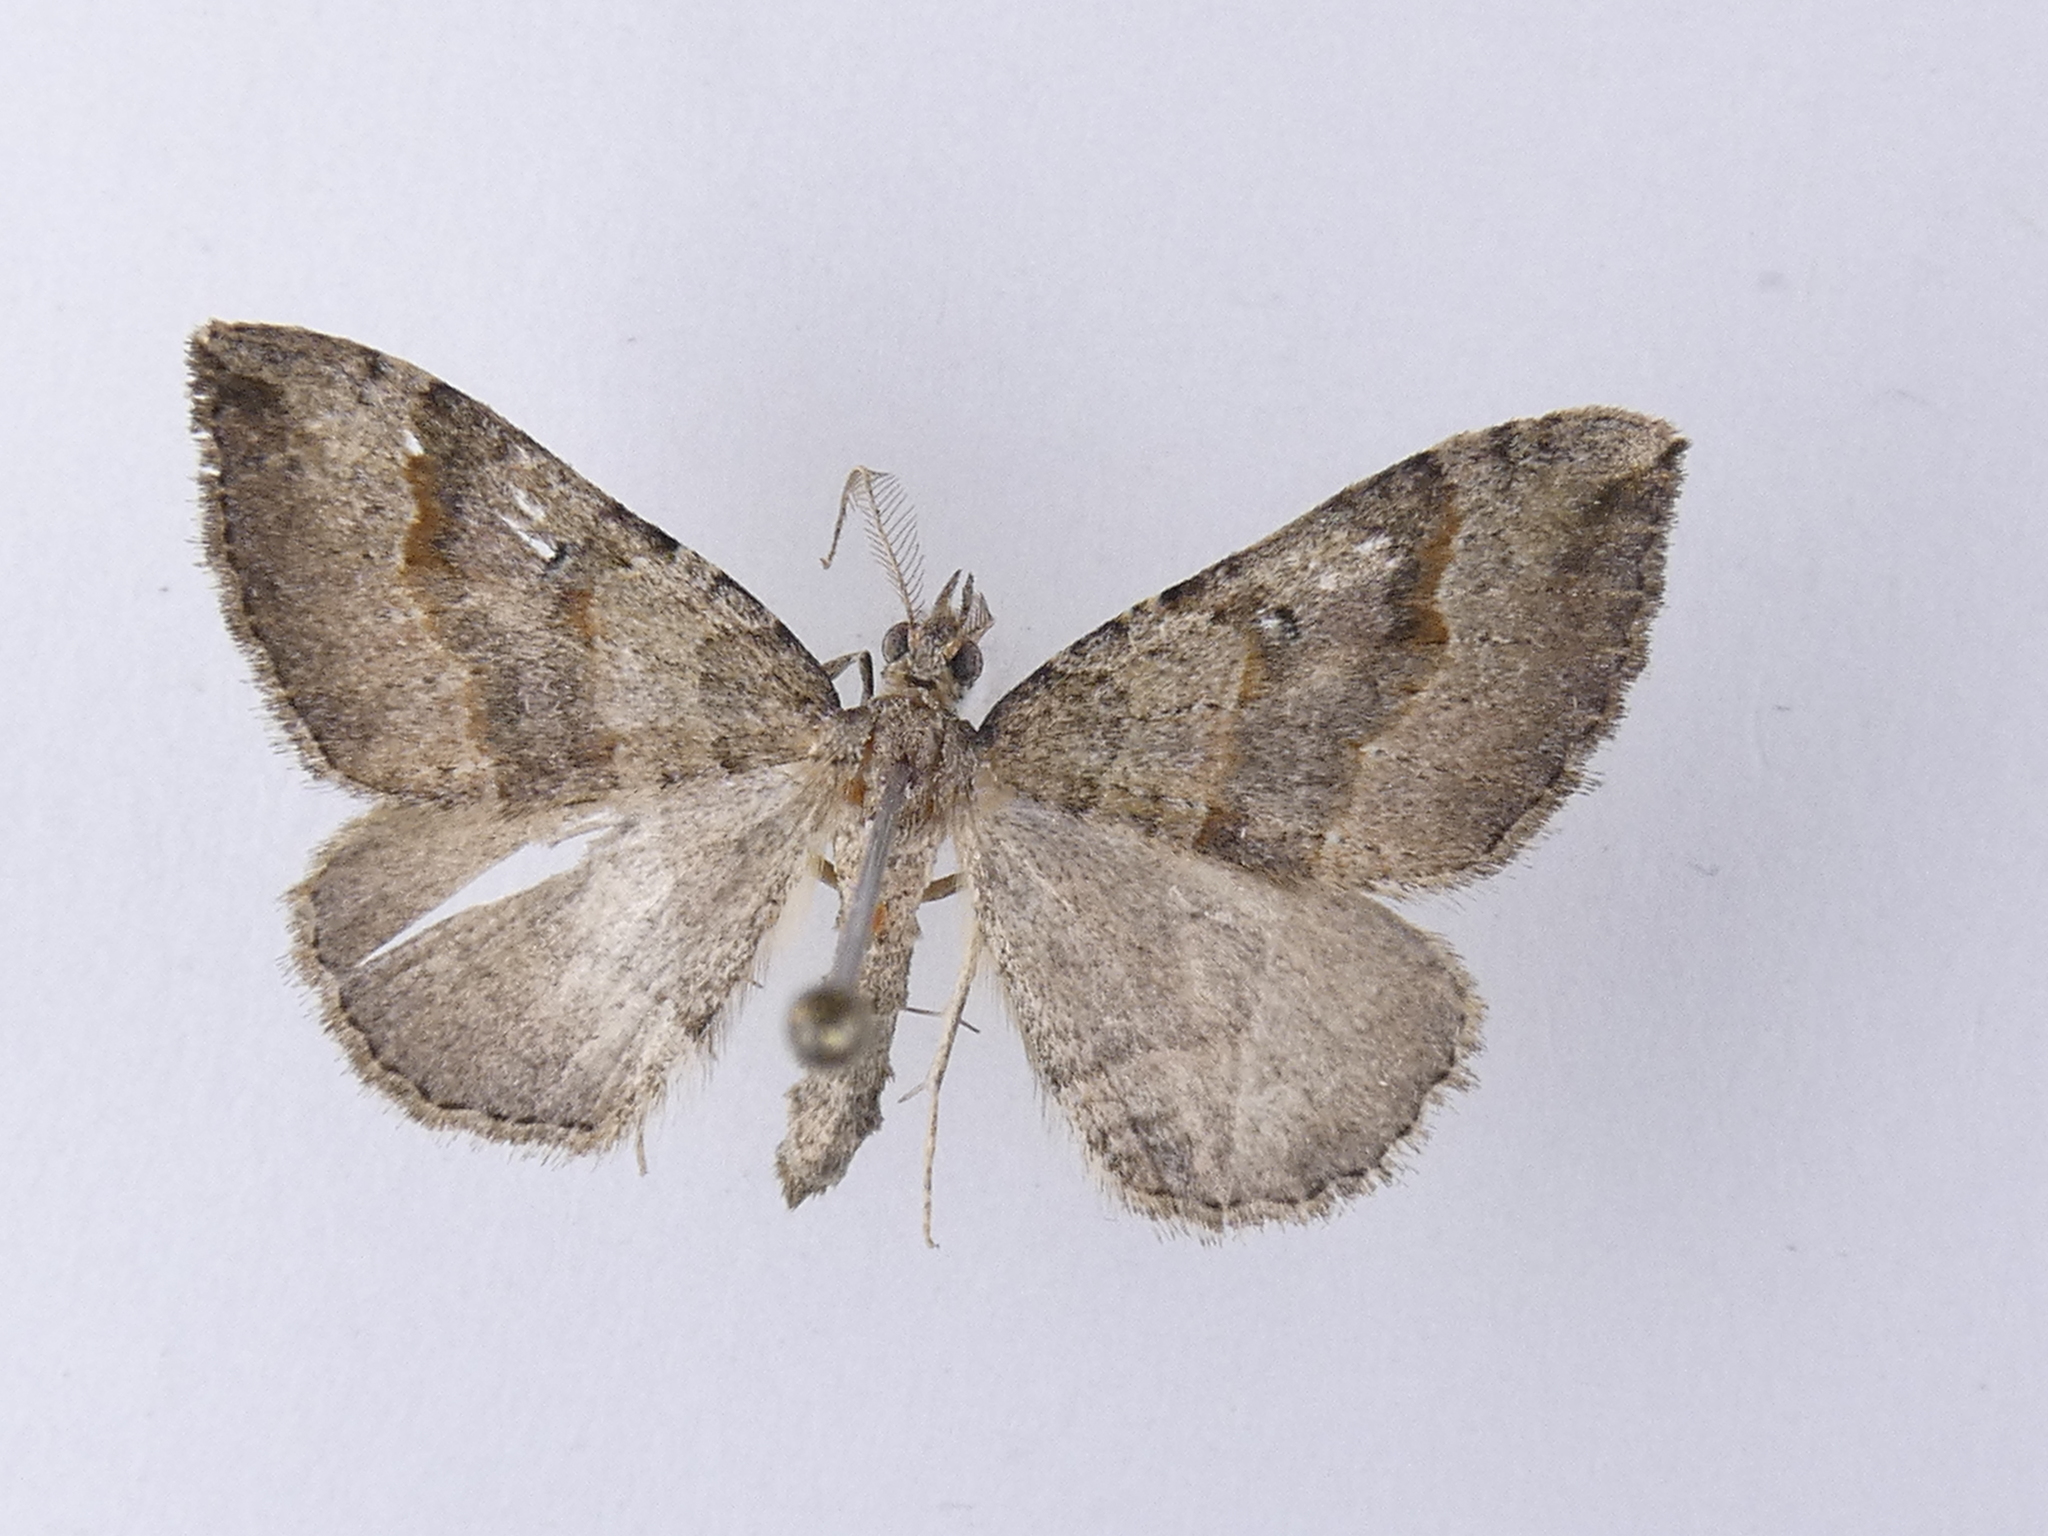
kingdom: Animalia
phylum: Arthropoda
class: Insecta
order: Lepidoptera
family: Geometridae
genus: Epyaxa
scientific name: Epyaxa rosearia
